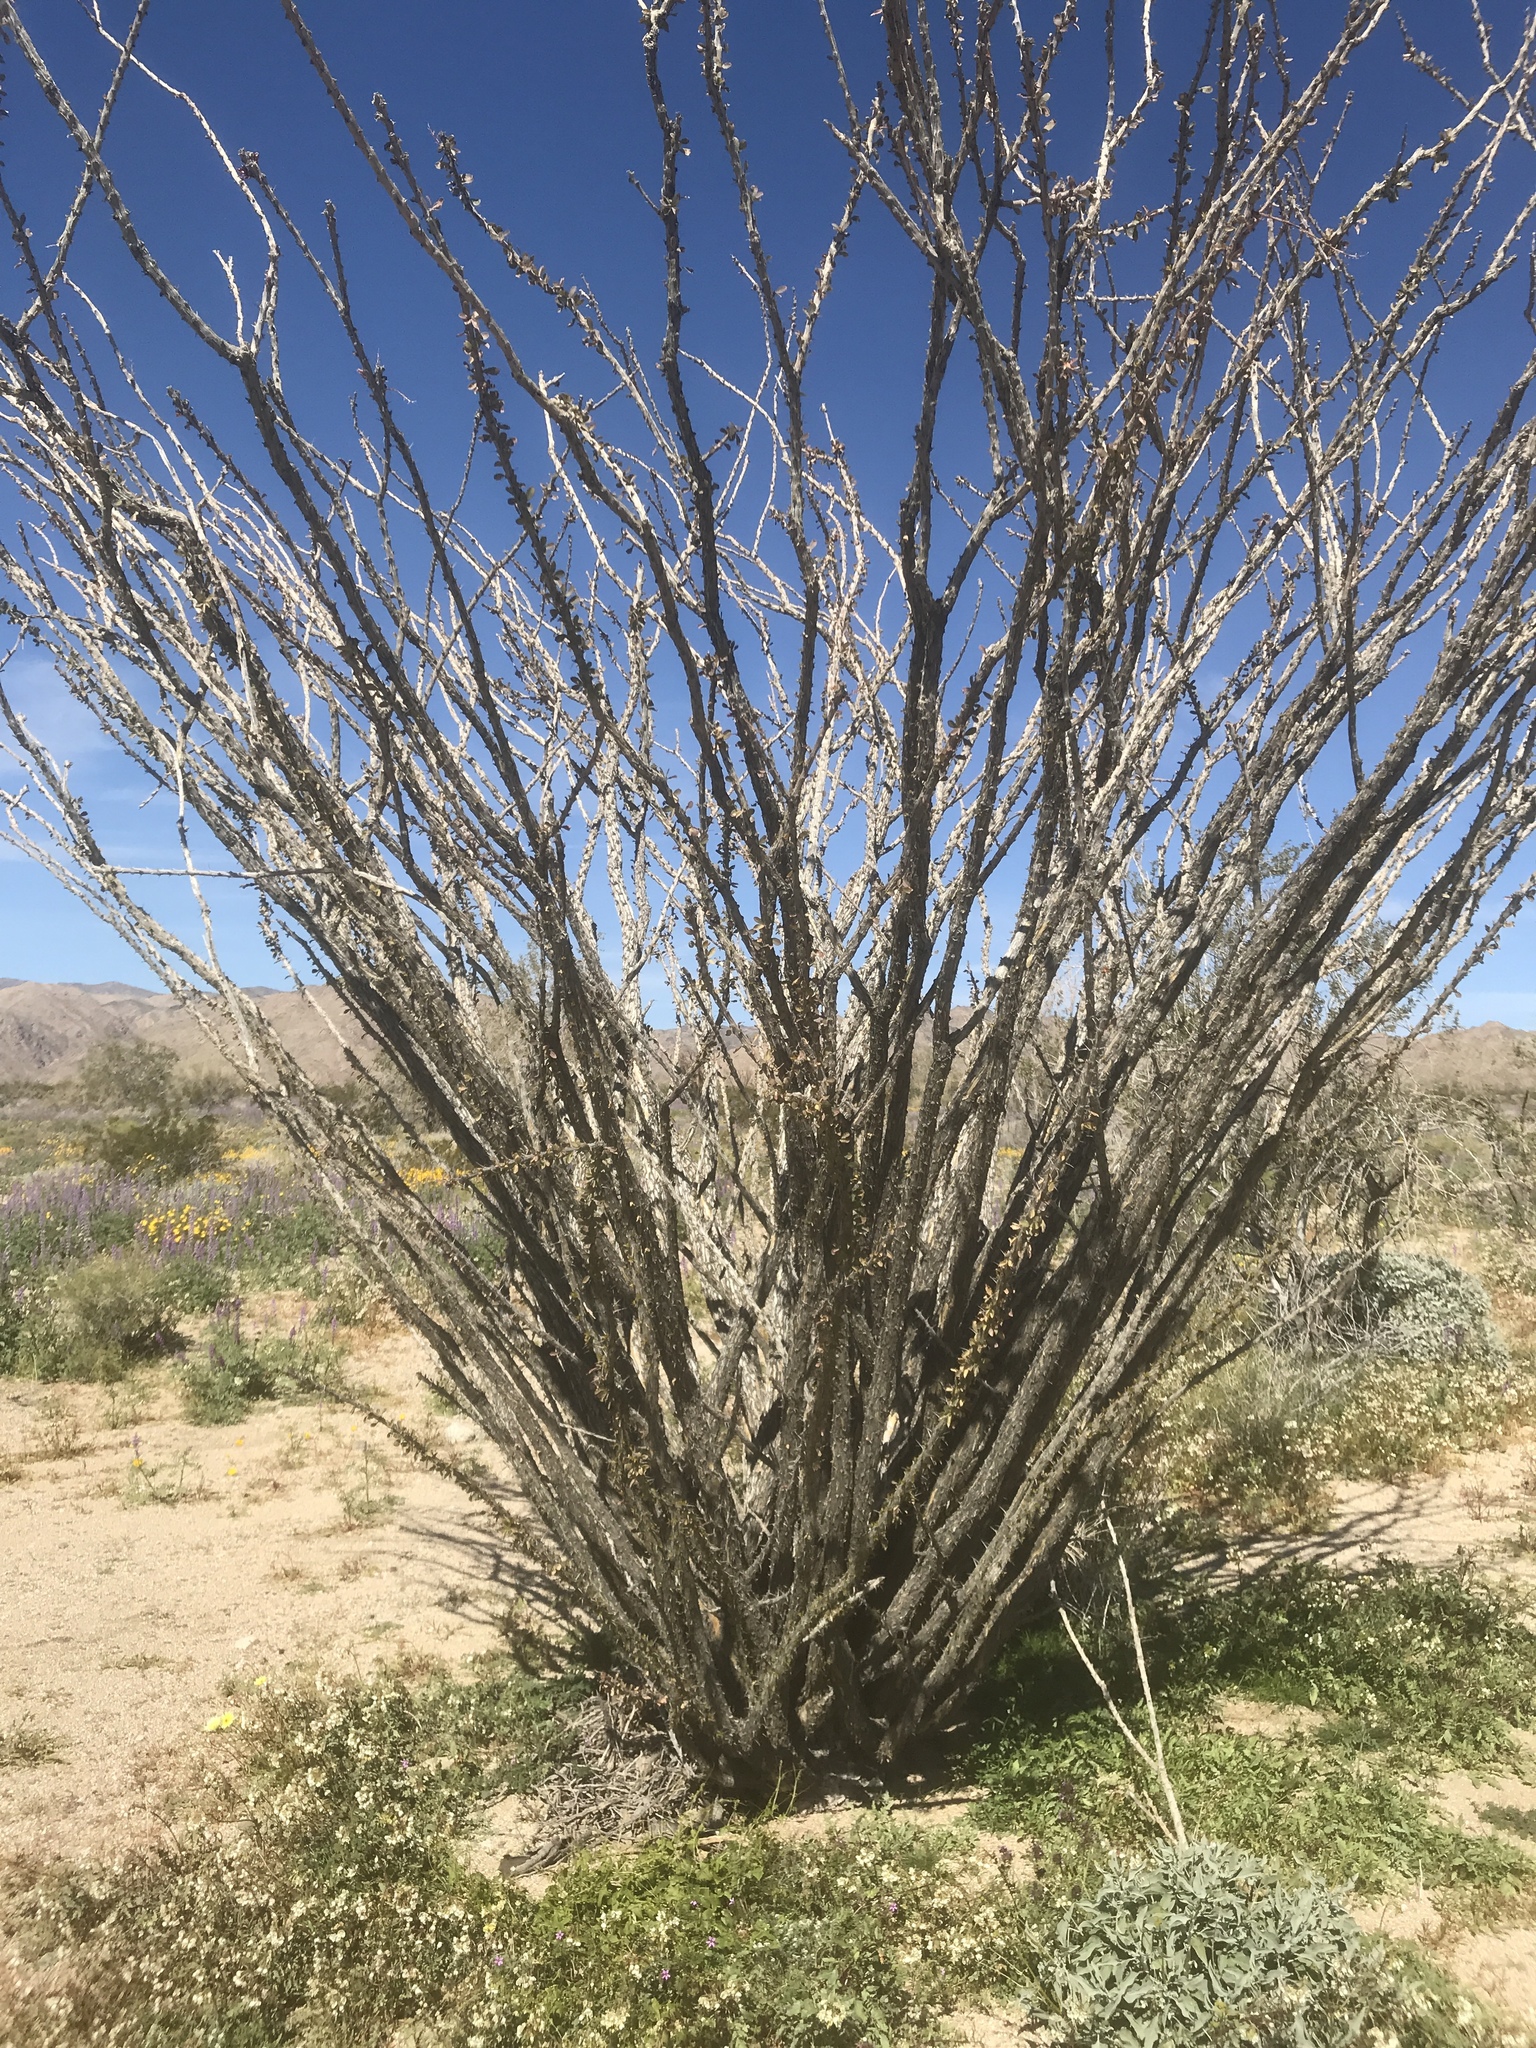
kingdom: Plantae
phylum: Tracheophyta
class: Magnoliopsida
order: Ericales
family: Fouquieriaceae
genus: Fouquieria
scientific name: Fouquieria splendens
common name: Vine-cactus
